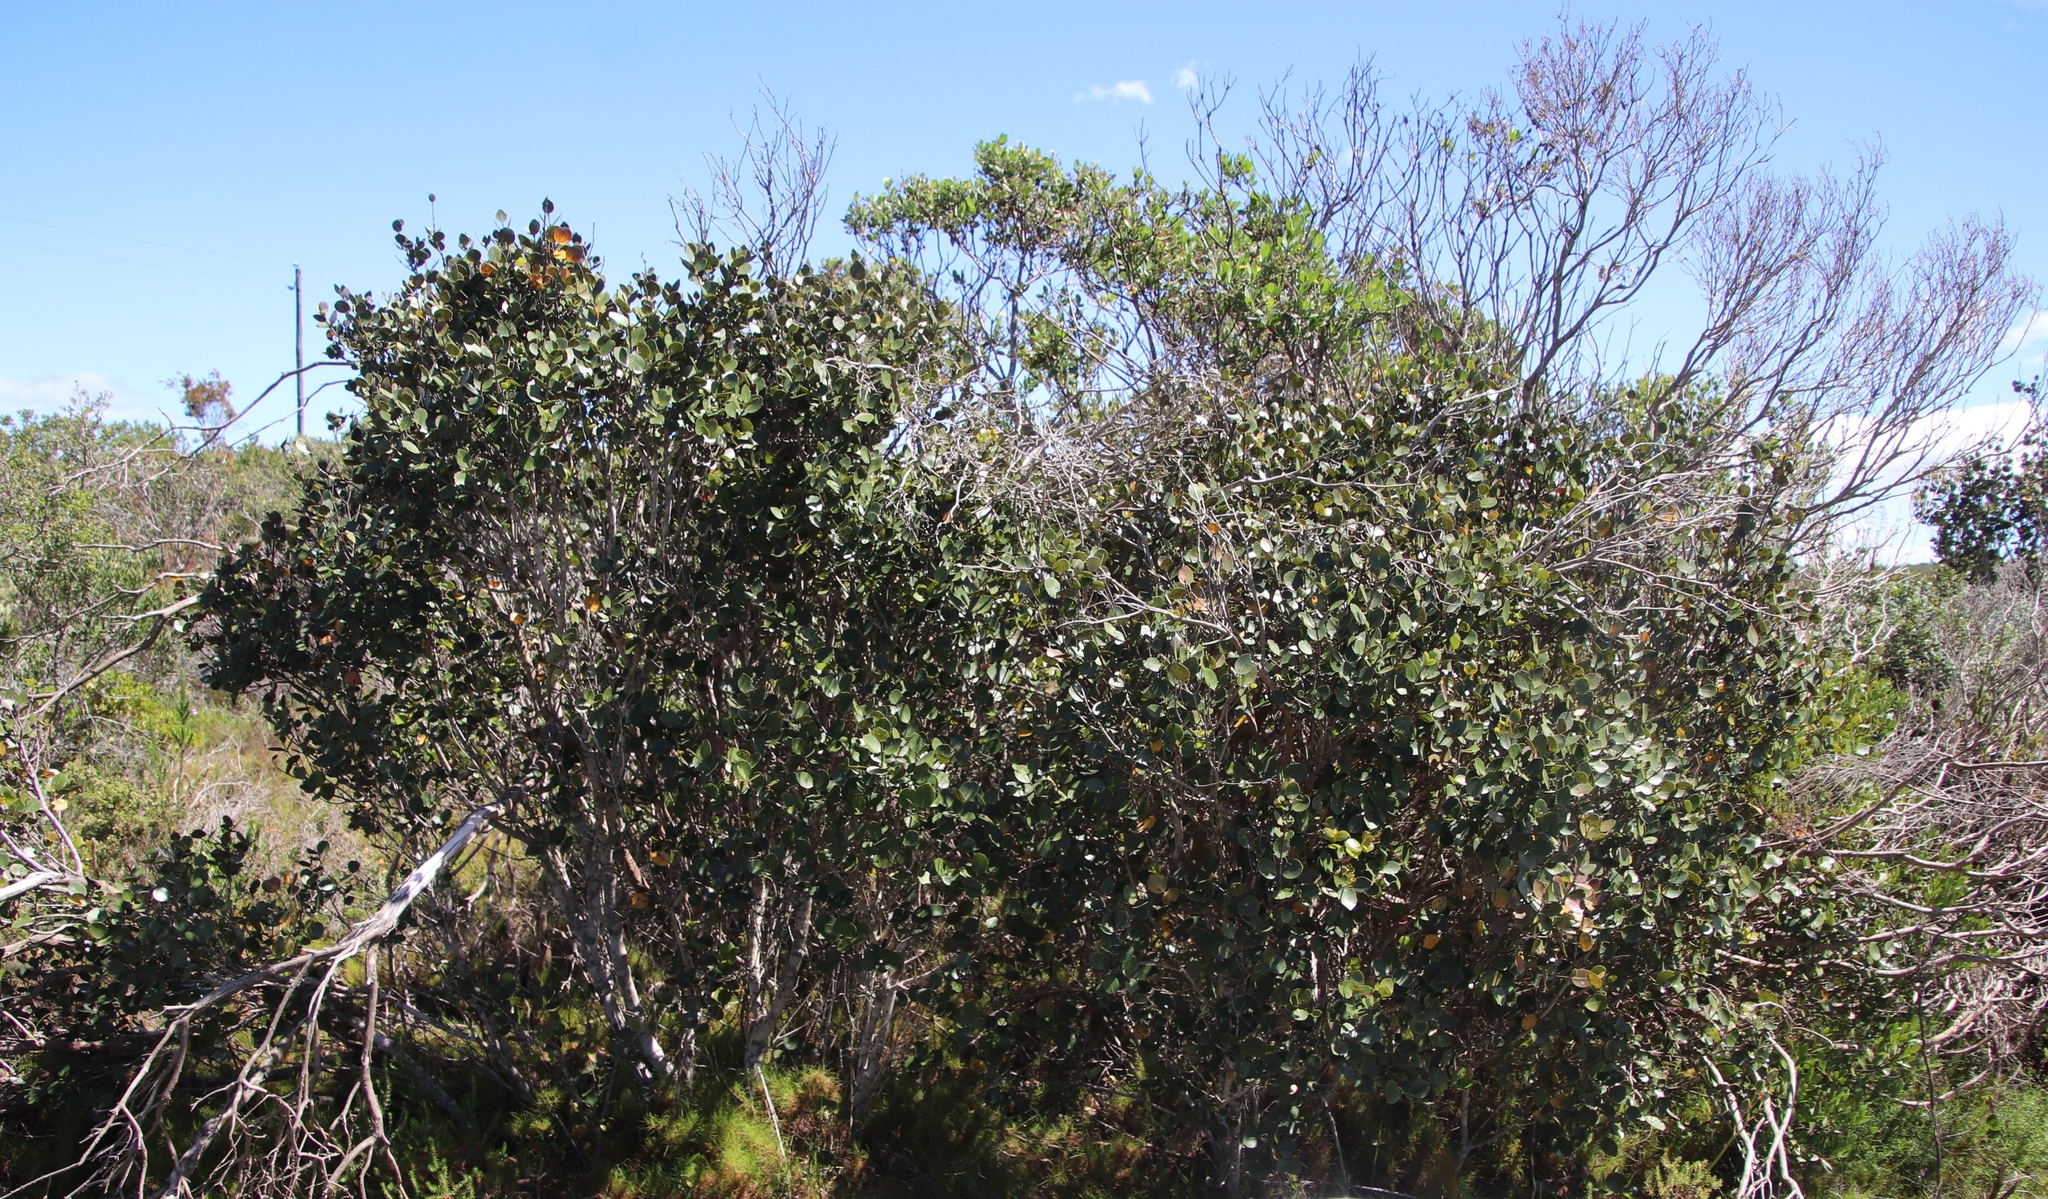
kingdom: Plantae
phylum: Tracheophyta
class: Magnoliopsida
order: Celastrales
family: Celastraceae
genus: Cassine
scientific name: Cassine peragua
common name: Cape saffron
